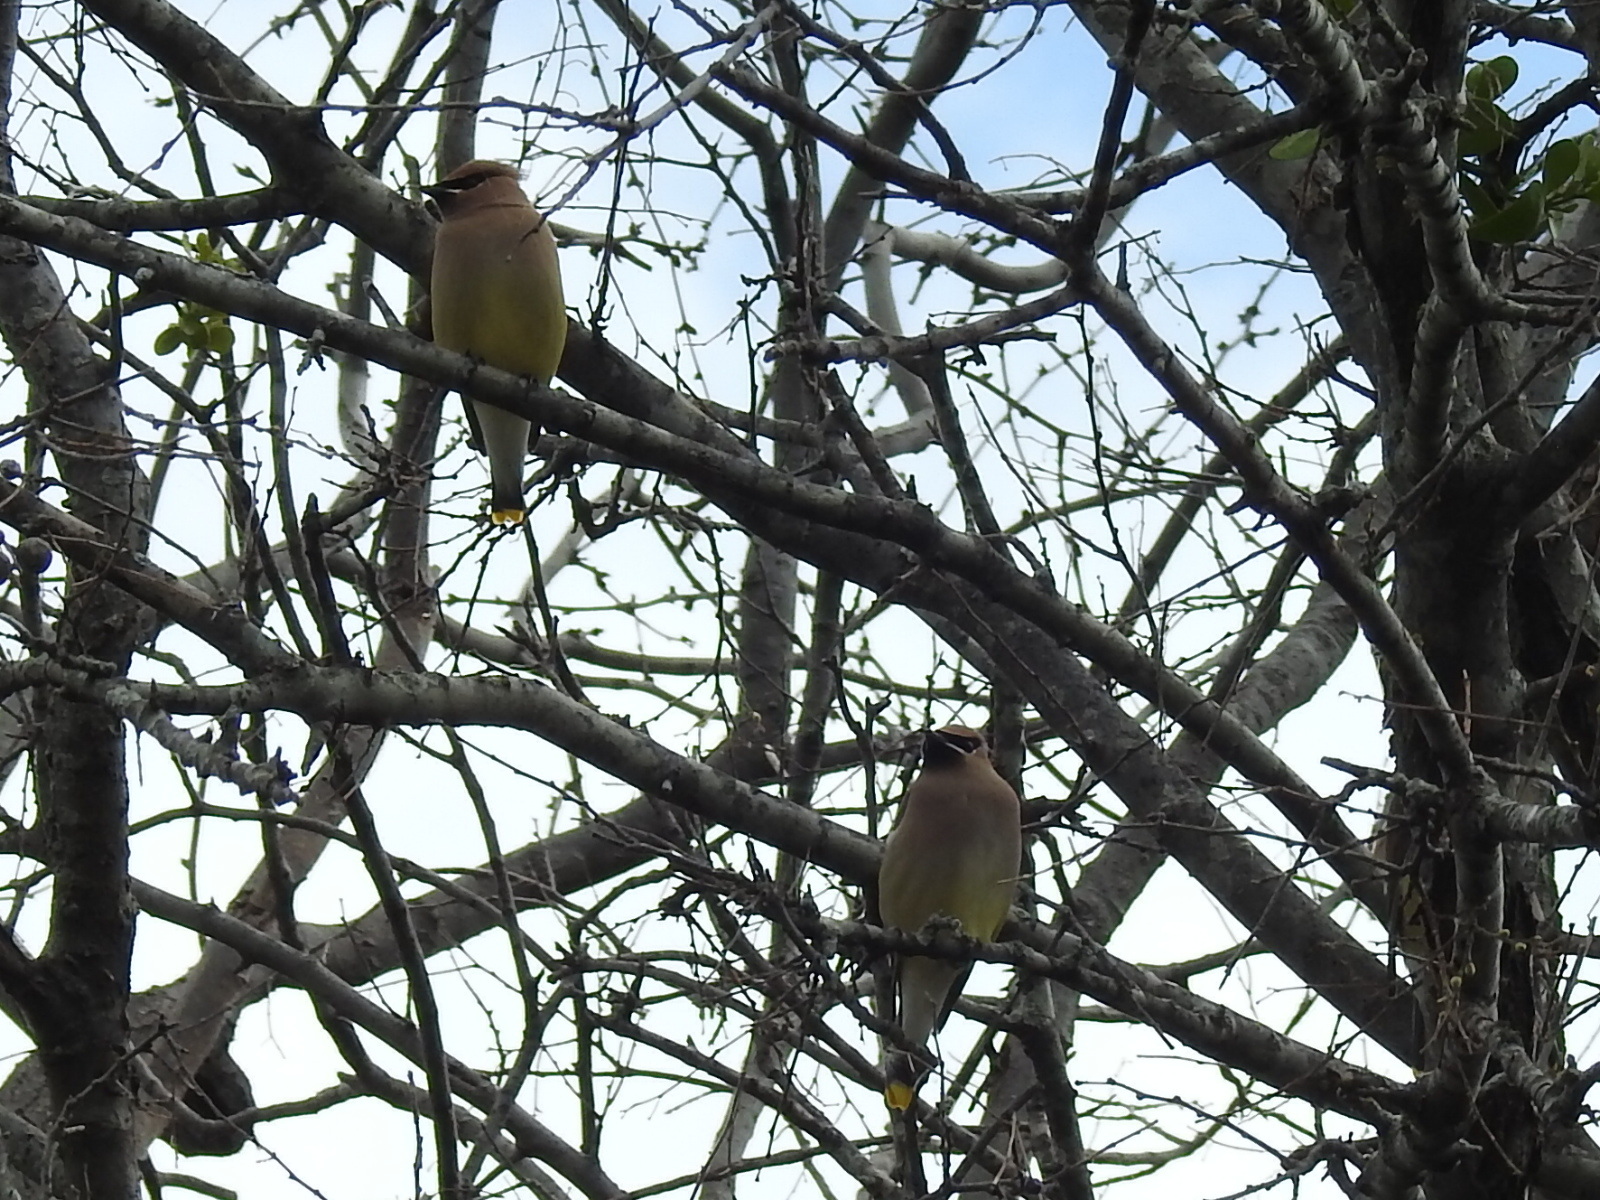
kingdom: Animalia
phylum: Chordata
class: Aves
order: Passeriformes
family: Bombycillidae
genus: Bombycilla
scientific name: Bombycilla cedrorum
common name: Cedar waxwing
